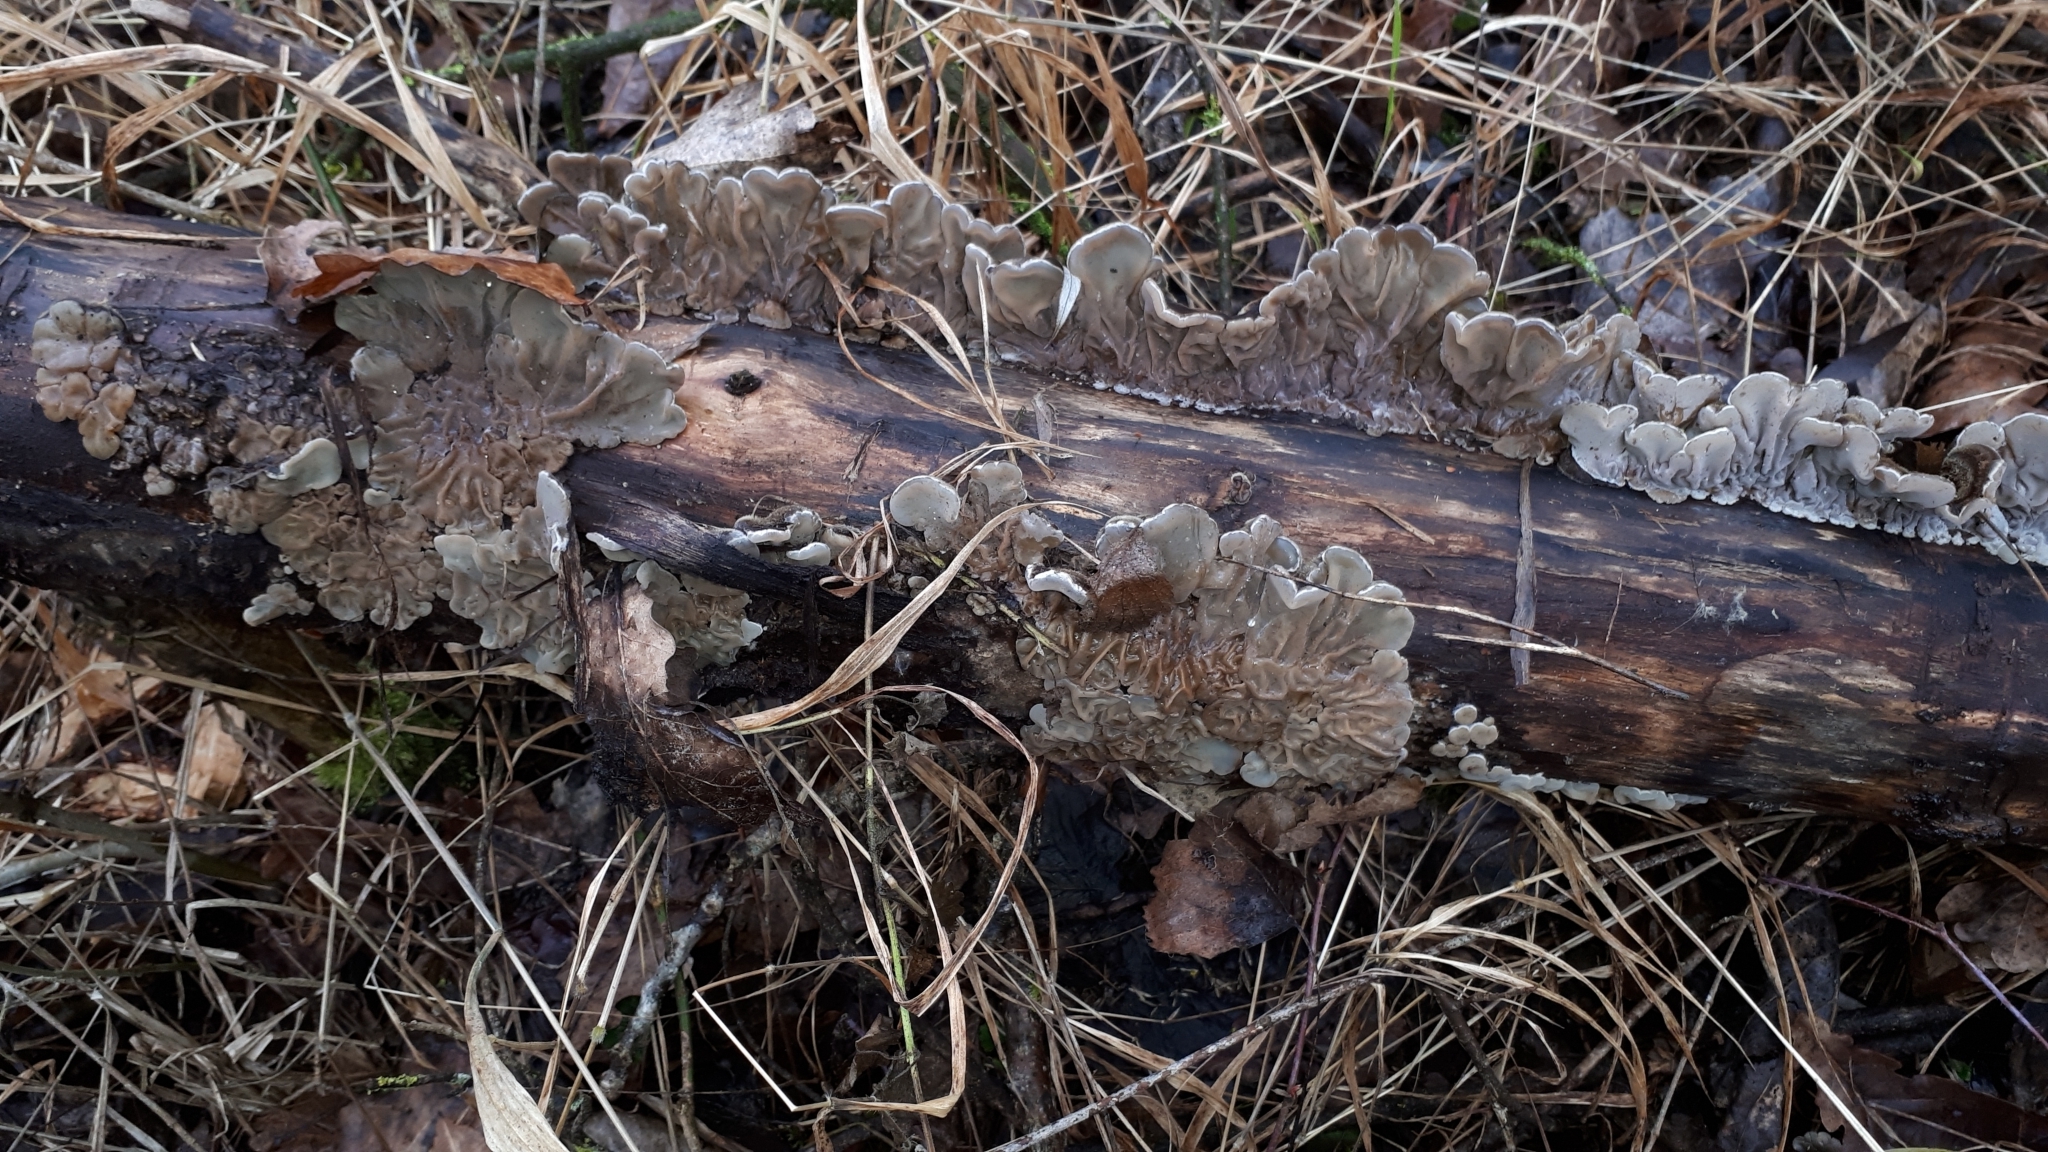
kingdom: Fungi
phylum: Basidiomycota
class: Agaricomycetes
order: Auriculariales
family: Auriculariaceae
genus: Auricularia
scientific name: Auricularia mesenterica
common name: Tripe fungus
